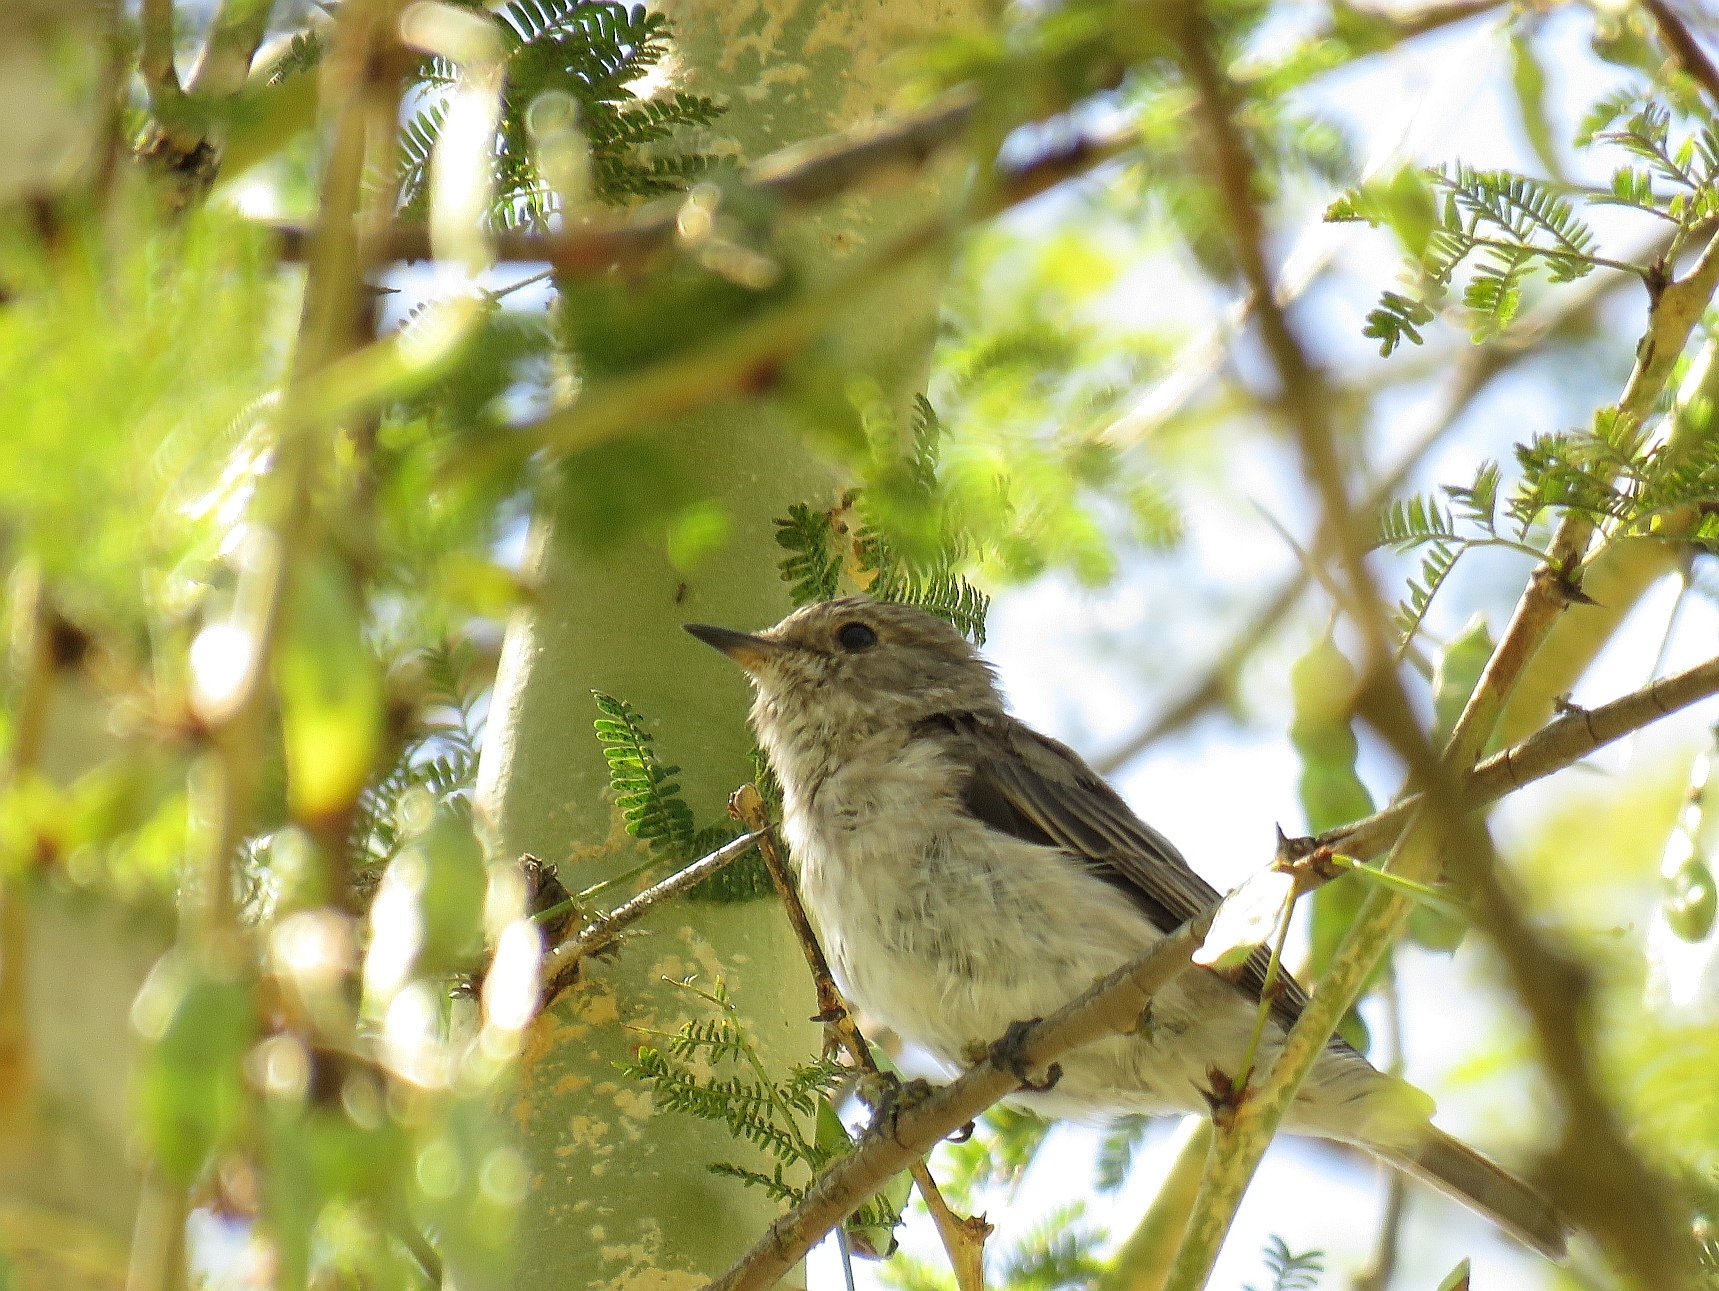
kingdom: Animalia
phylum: Chordata
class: Aves
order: Passeriformes
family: Muscicapidae
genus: Muscicapa
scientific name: Muscicapa striata
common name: Spotted flycatcher
